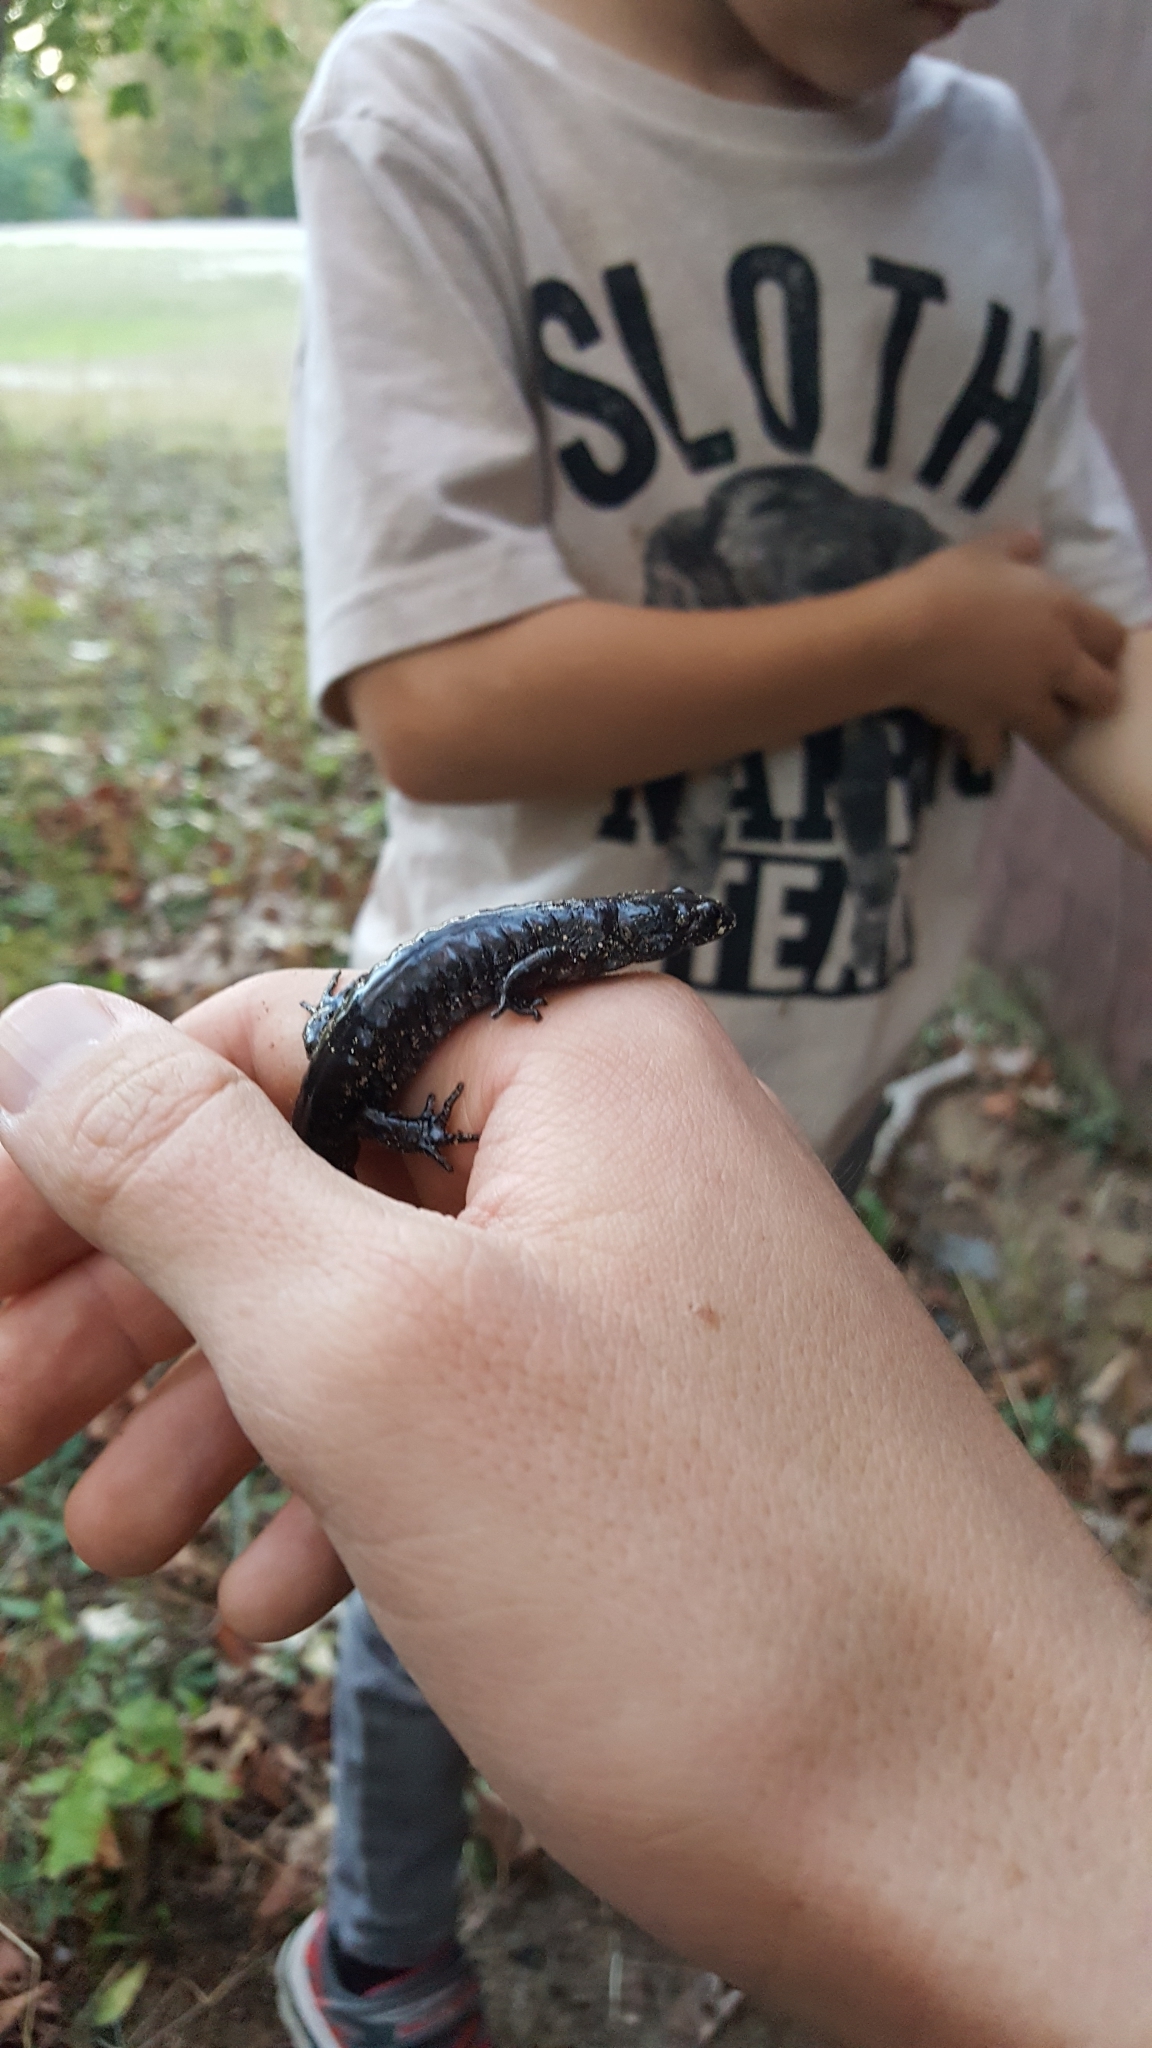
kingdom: Animalia
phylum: Chordata
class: Amphibia
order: Caudata
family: Ambystomatidae
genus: Ambystoma
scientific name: Ambystoma laterale
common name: Blue-spotted salamander
